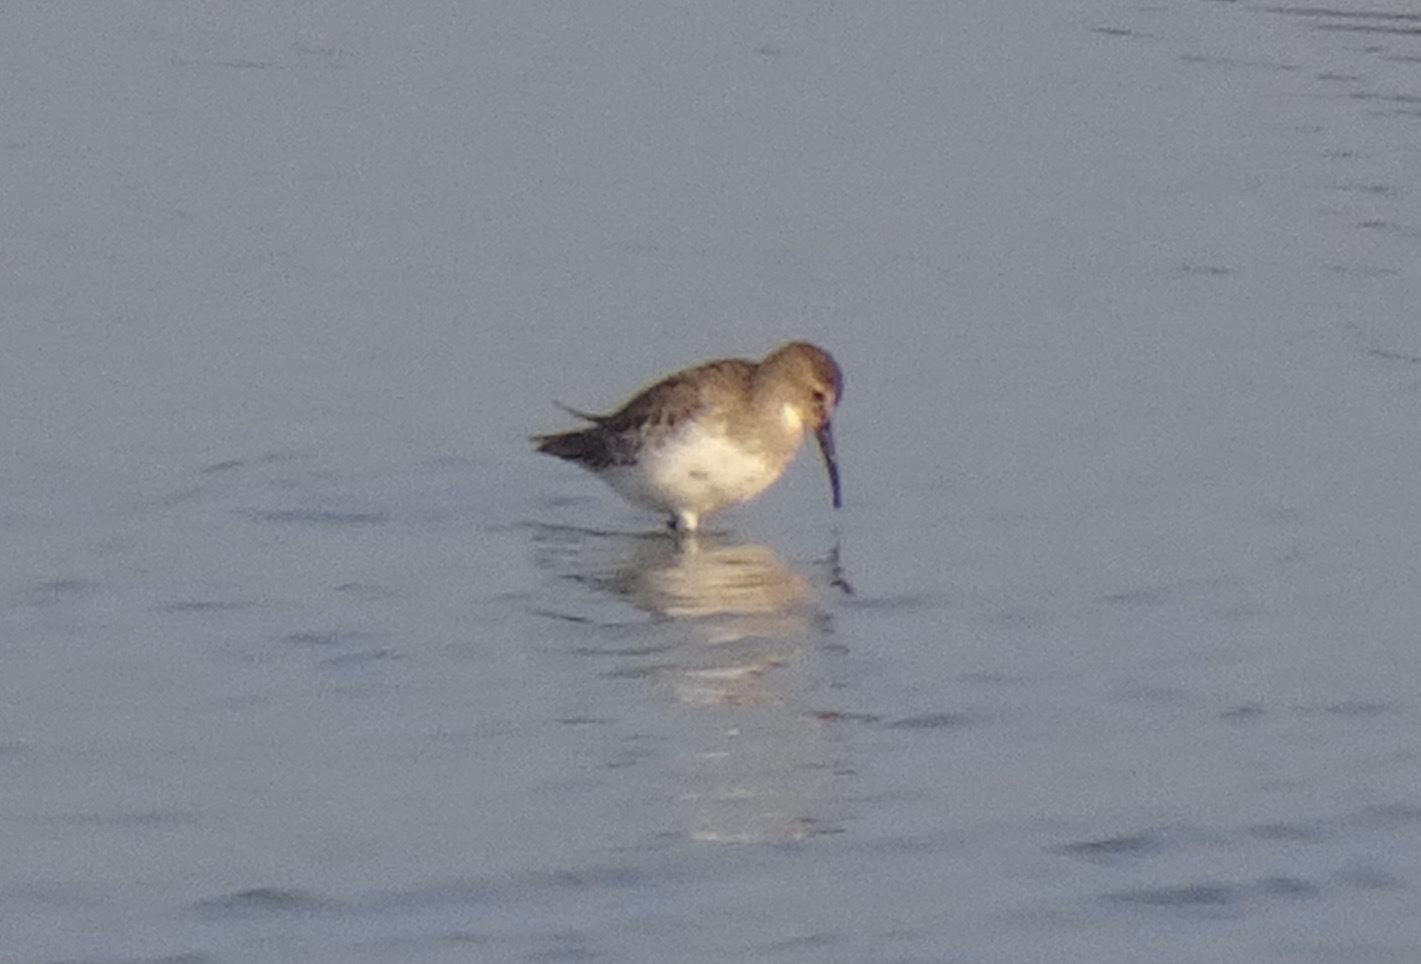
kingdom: Animalia
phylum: Chordata
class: Aves
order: Charadriiformes
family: Scolopacidae
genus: Calidris
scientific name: Calidris alpina
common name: Dunlin
